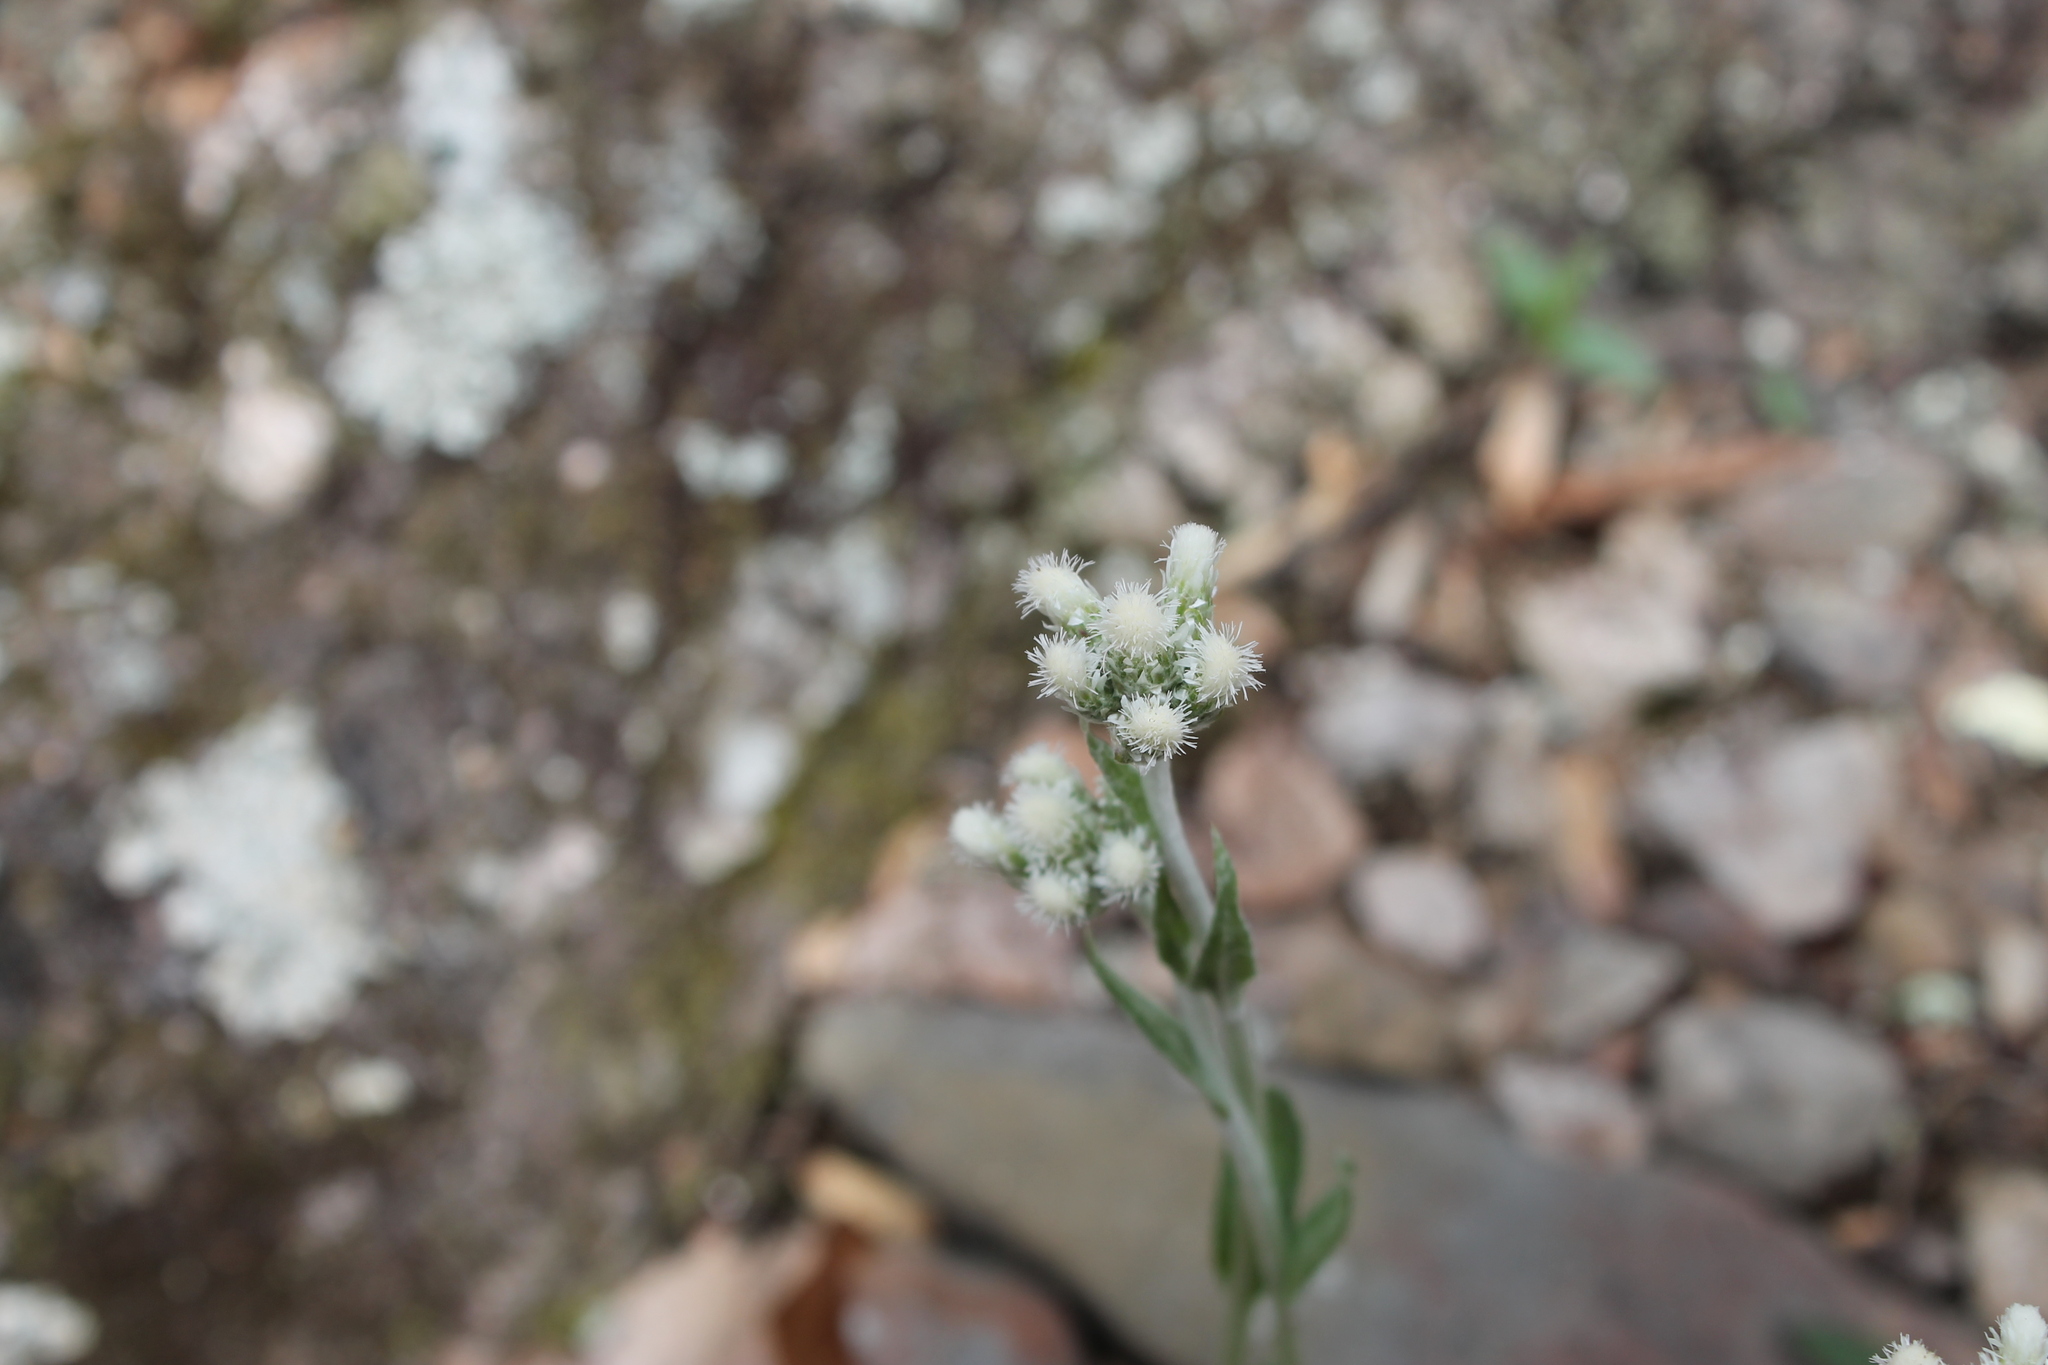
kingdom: Plantae
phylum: Tracheophyta
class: Magnoliopsida
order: Asterales
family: Asteraceae
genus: Antennaria
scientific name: Antennaria plantaginifolia
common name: Plantain-leaved pussytoes
